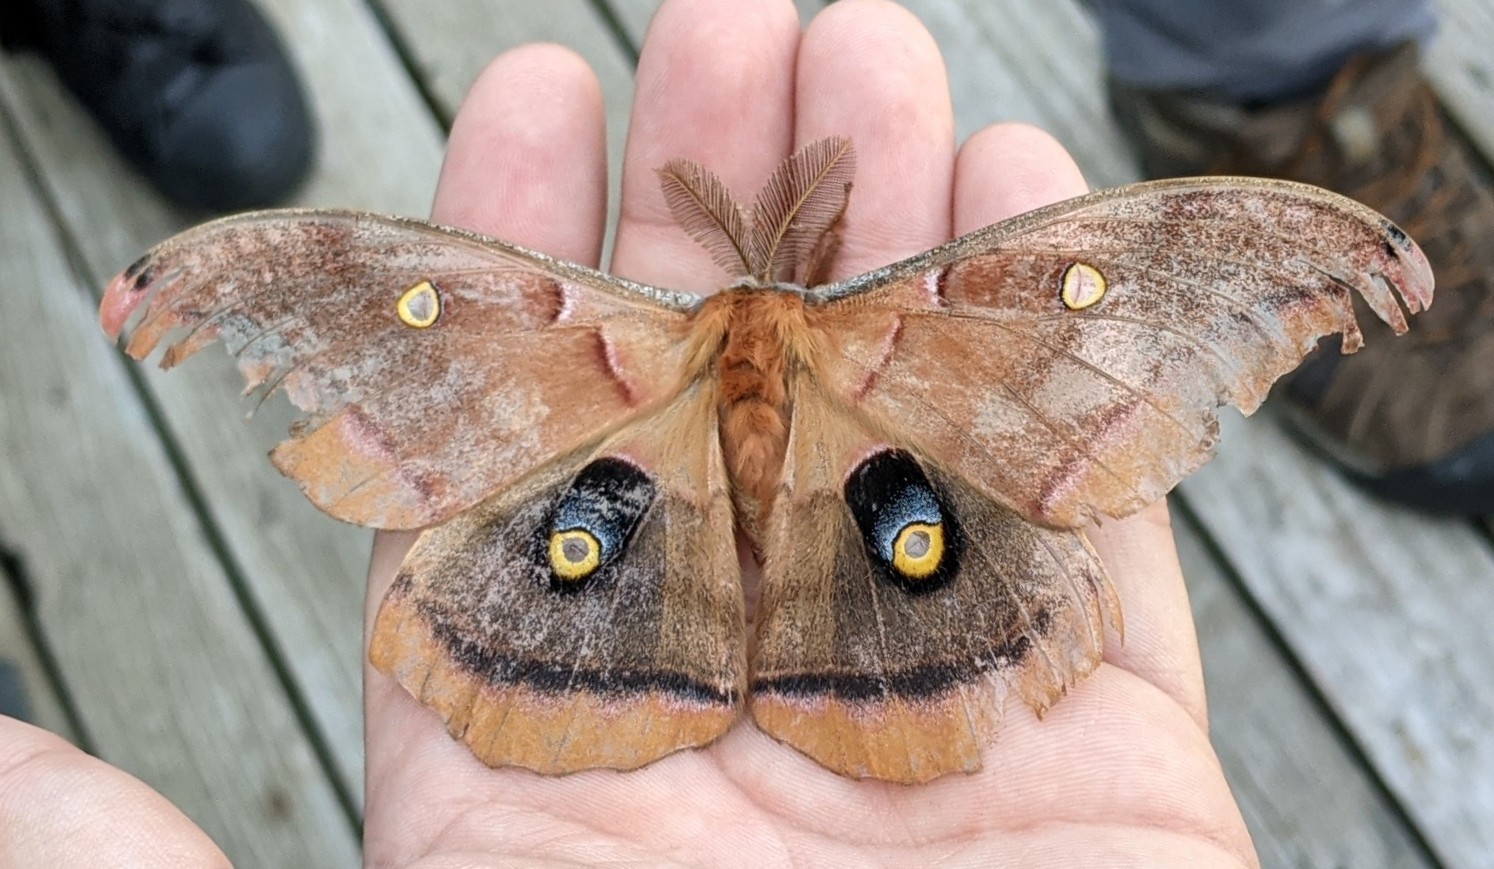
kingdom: Animalia
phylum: Arthropoda
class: Insecta
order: Lepidoptera
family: Saturniidae
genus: Antheraea
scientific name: Antheraea polyphemus
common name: Polyphemus moth
